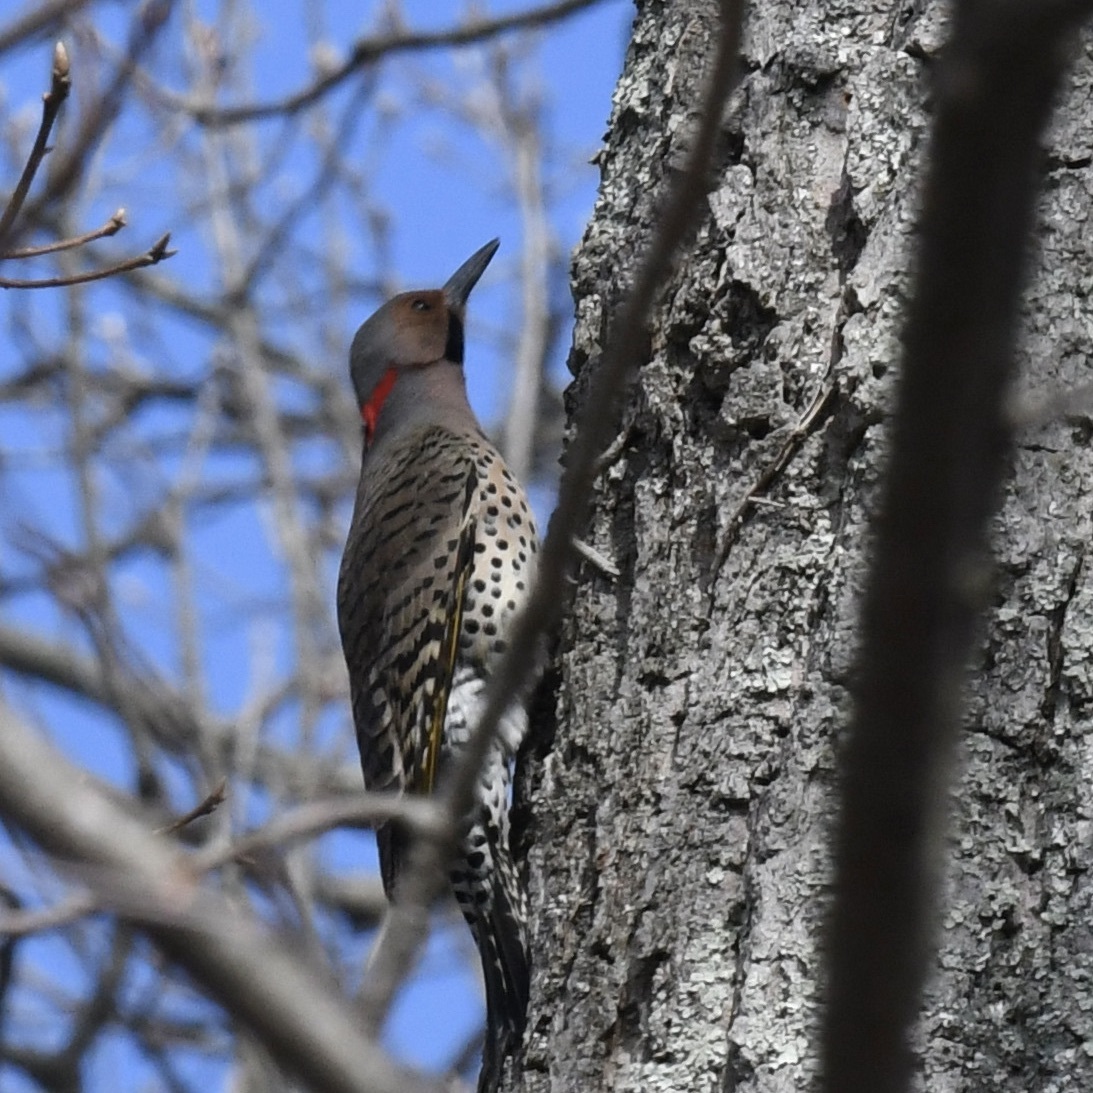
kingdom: Animalia
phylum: Chordata
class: Aves
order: Piciformes
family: Picidae
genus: Colaptes
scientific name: Colaptes auratus
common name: Northern flicker
